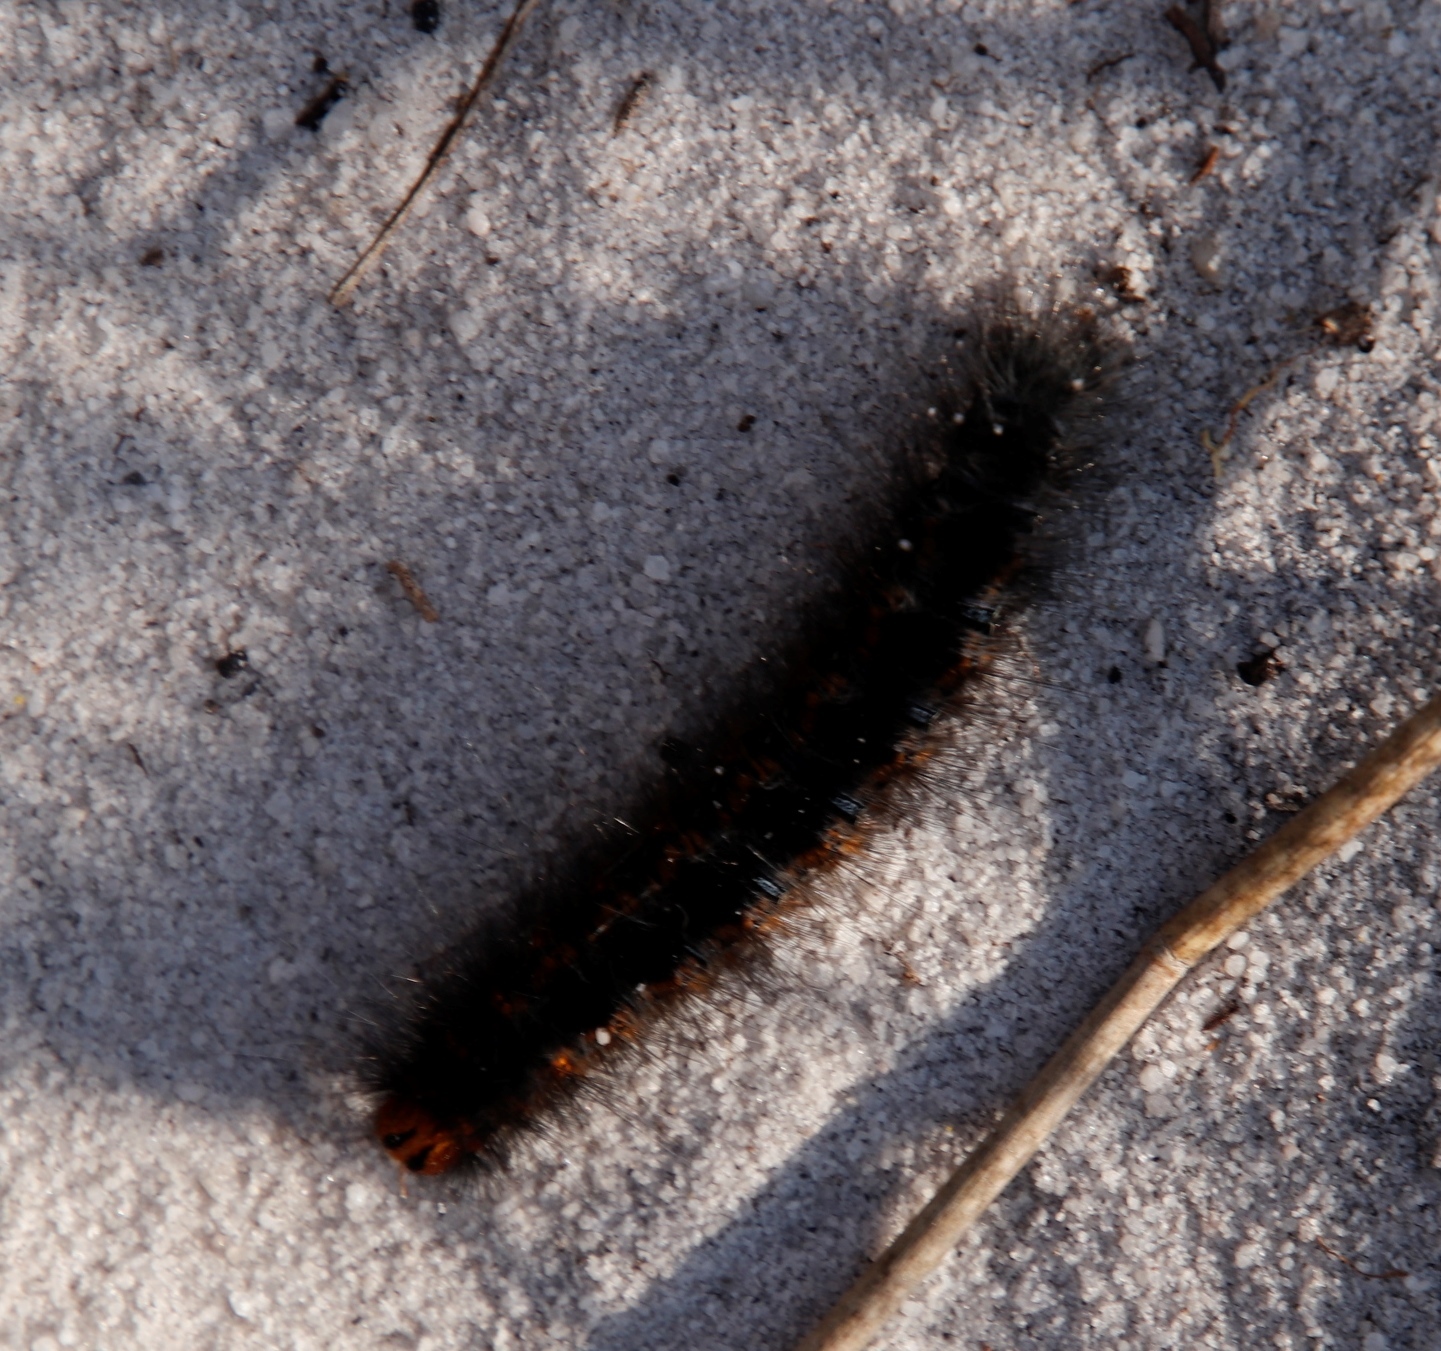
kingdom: Animalia
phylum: Arthropoda
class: Insecta
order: Lepidoptera
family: Lasiocampidae
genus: Mesocelis
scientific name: Mesocelis monticola
